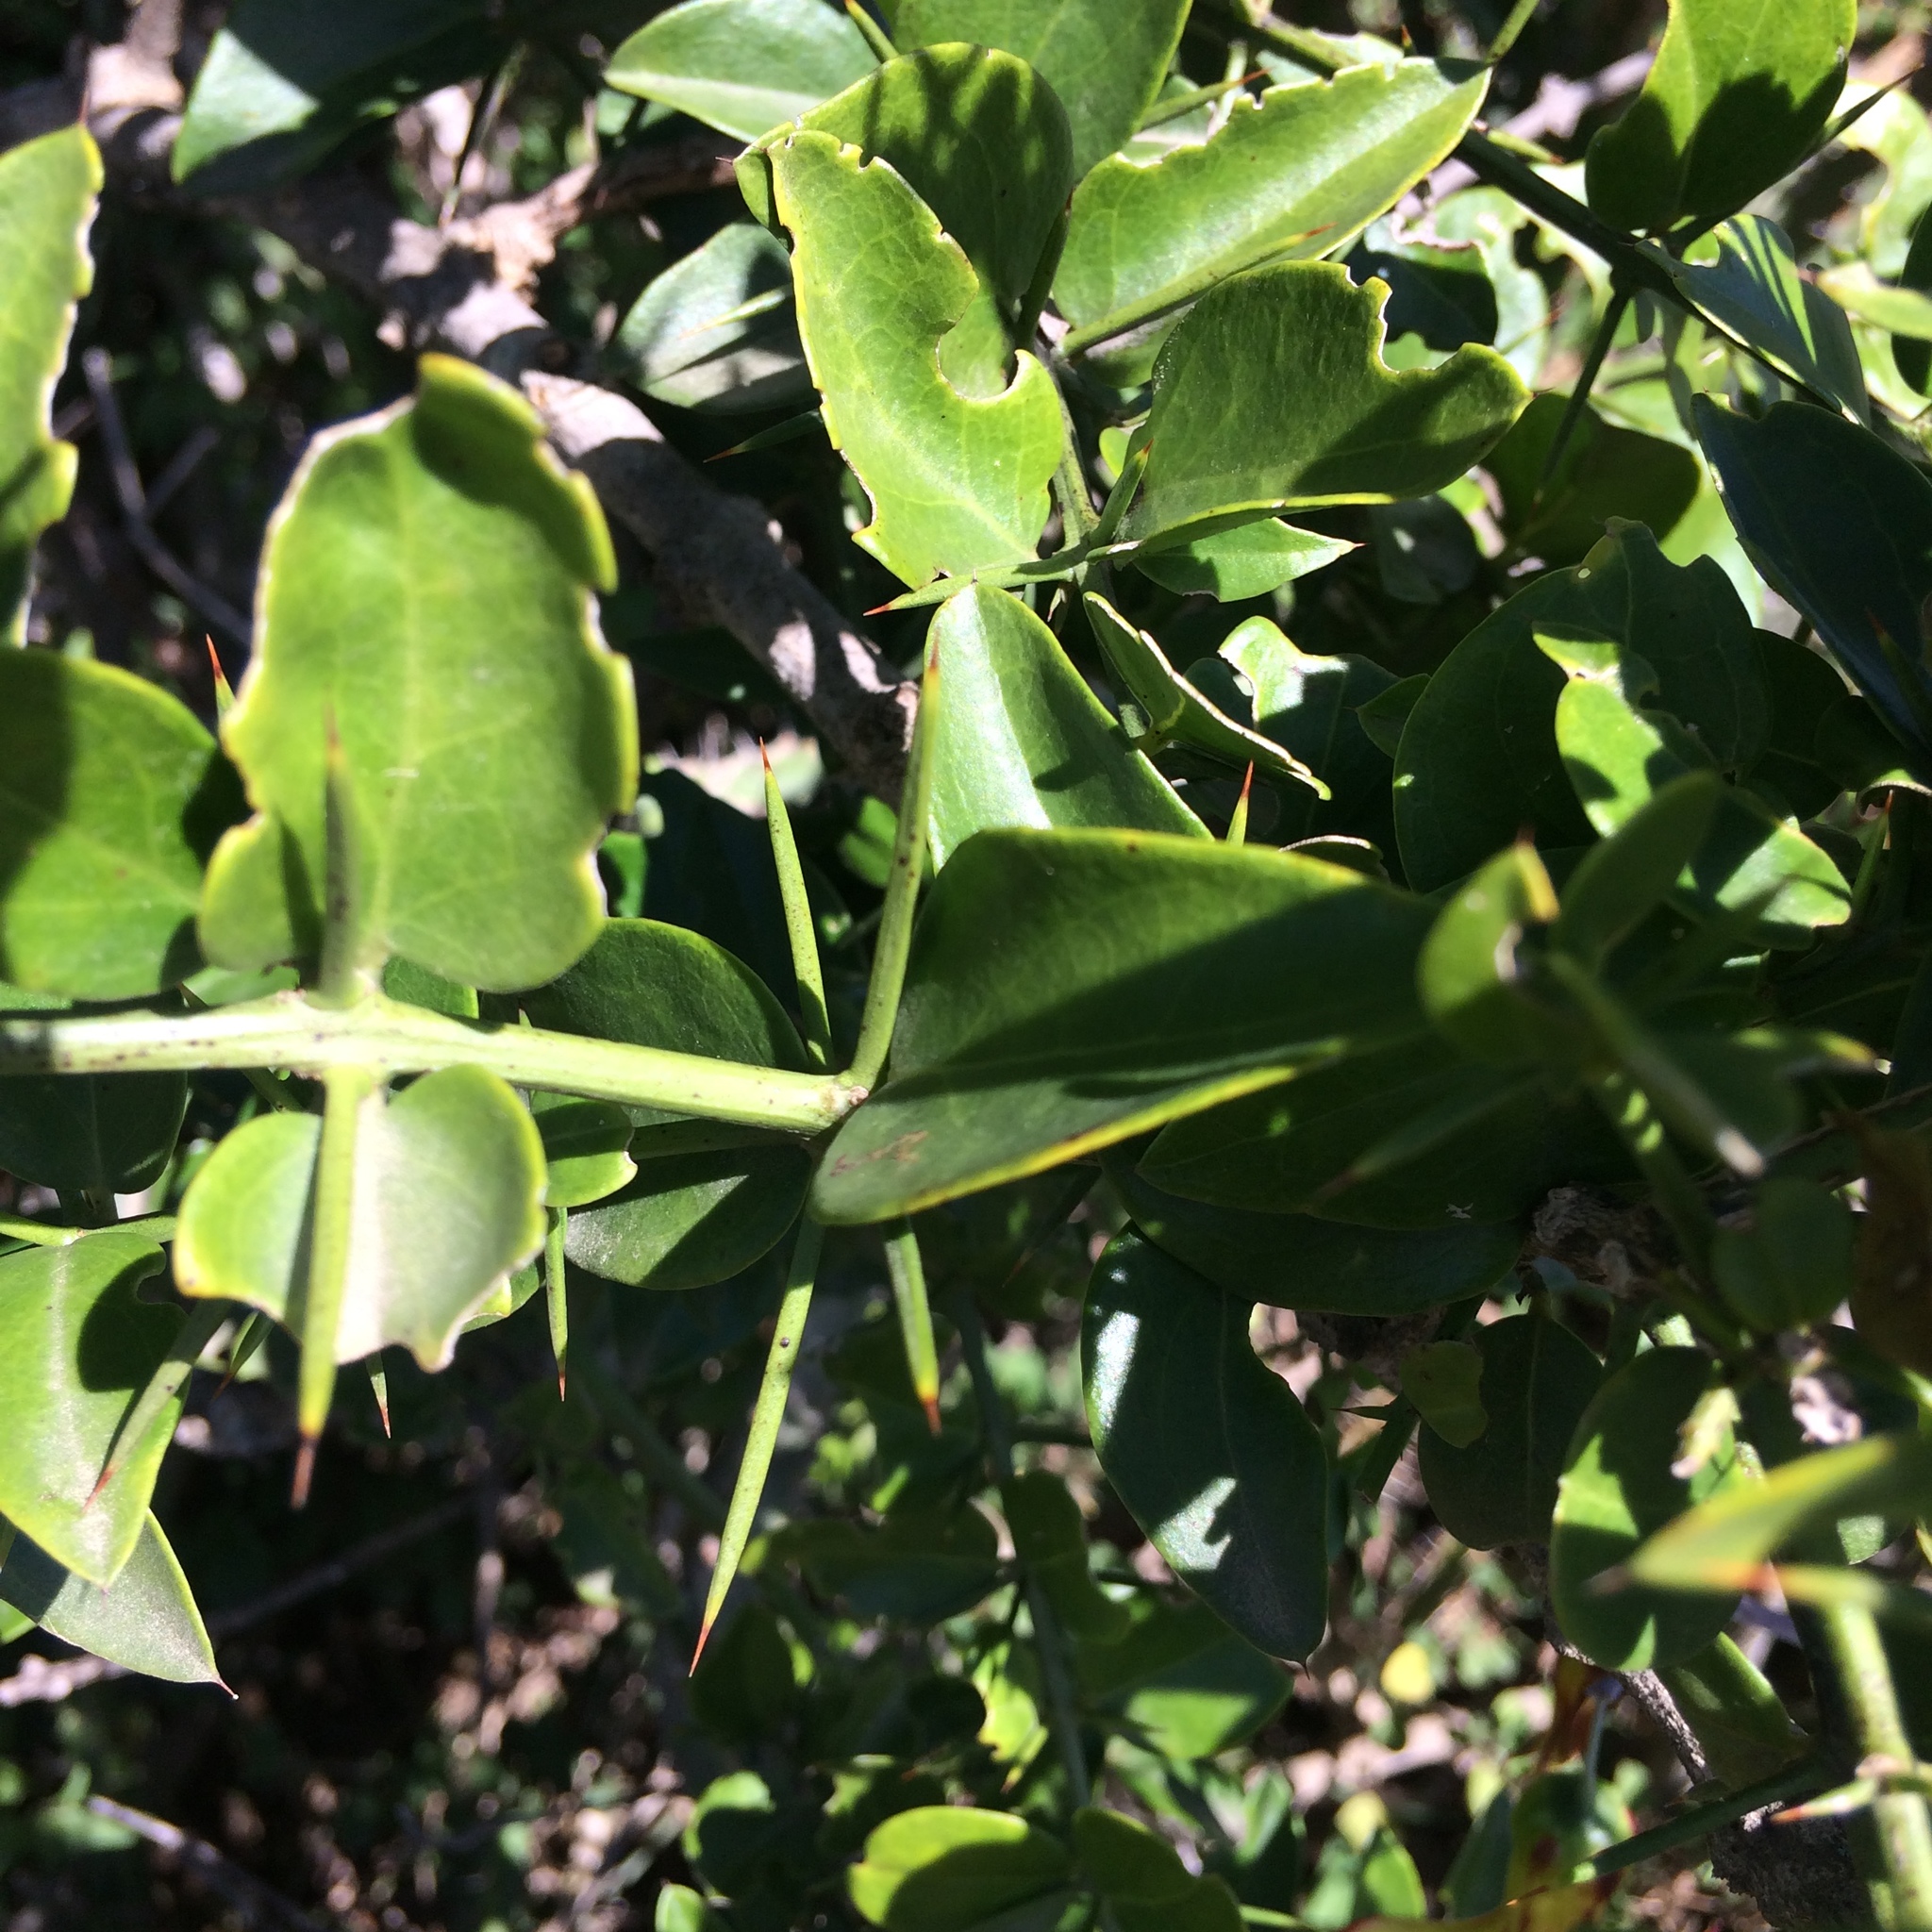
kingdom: Plantae
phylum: Tracheophyta
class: Magnoliopsida
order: Brassicales
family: Salvadoraceae
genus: Azima
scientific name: Azima tetracantha
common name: Needle bush
